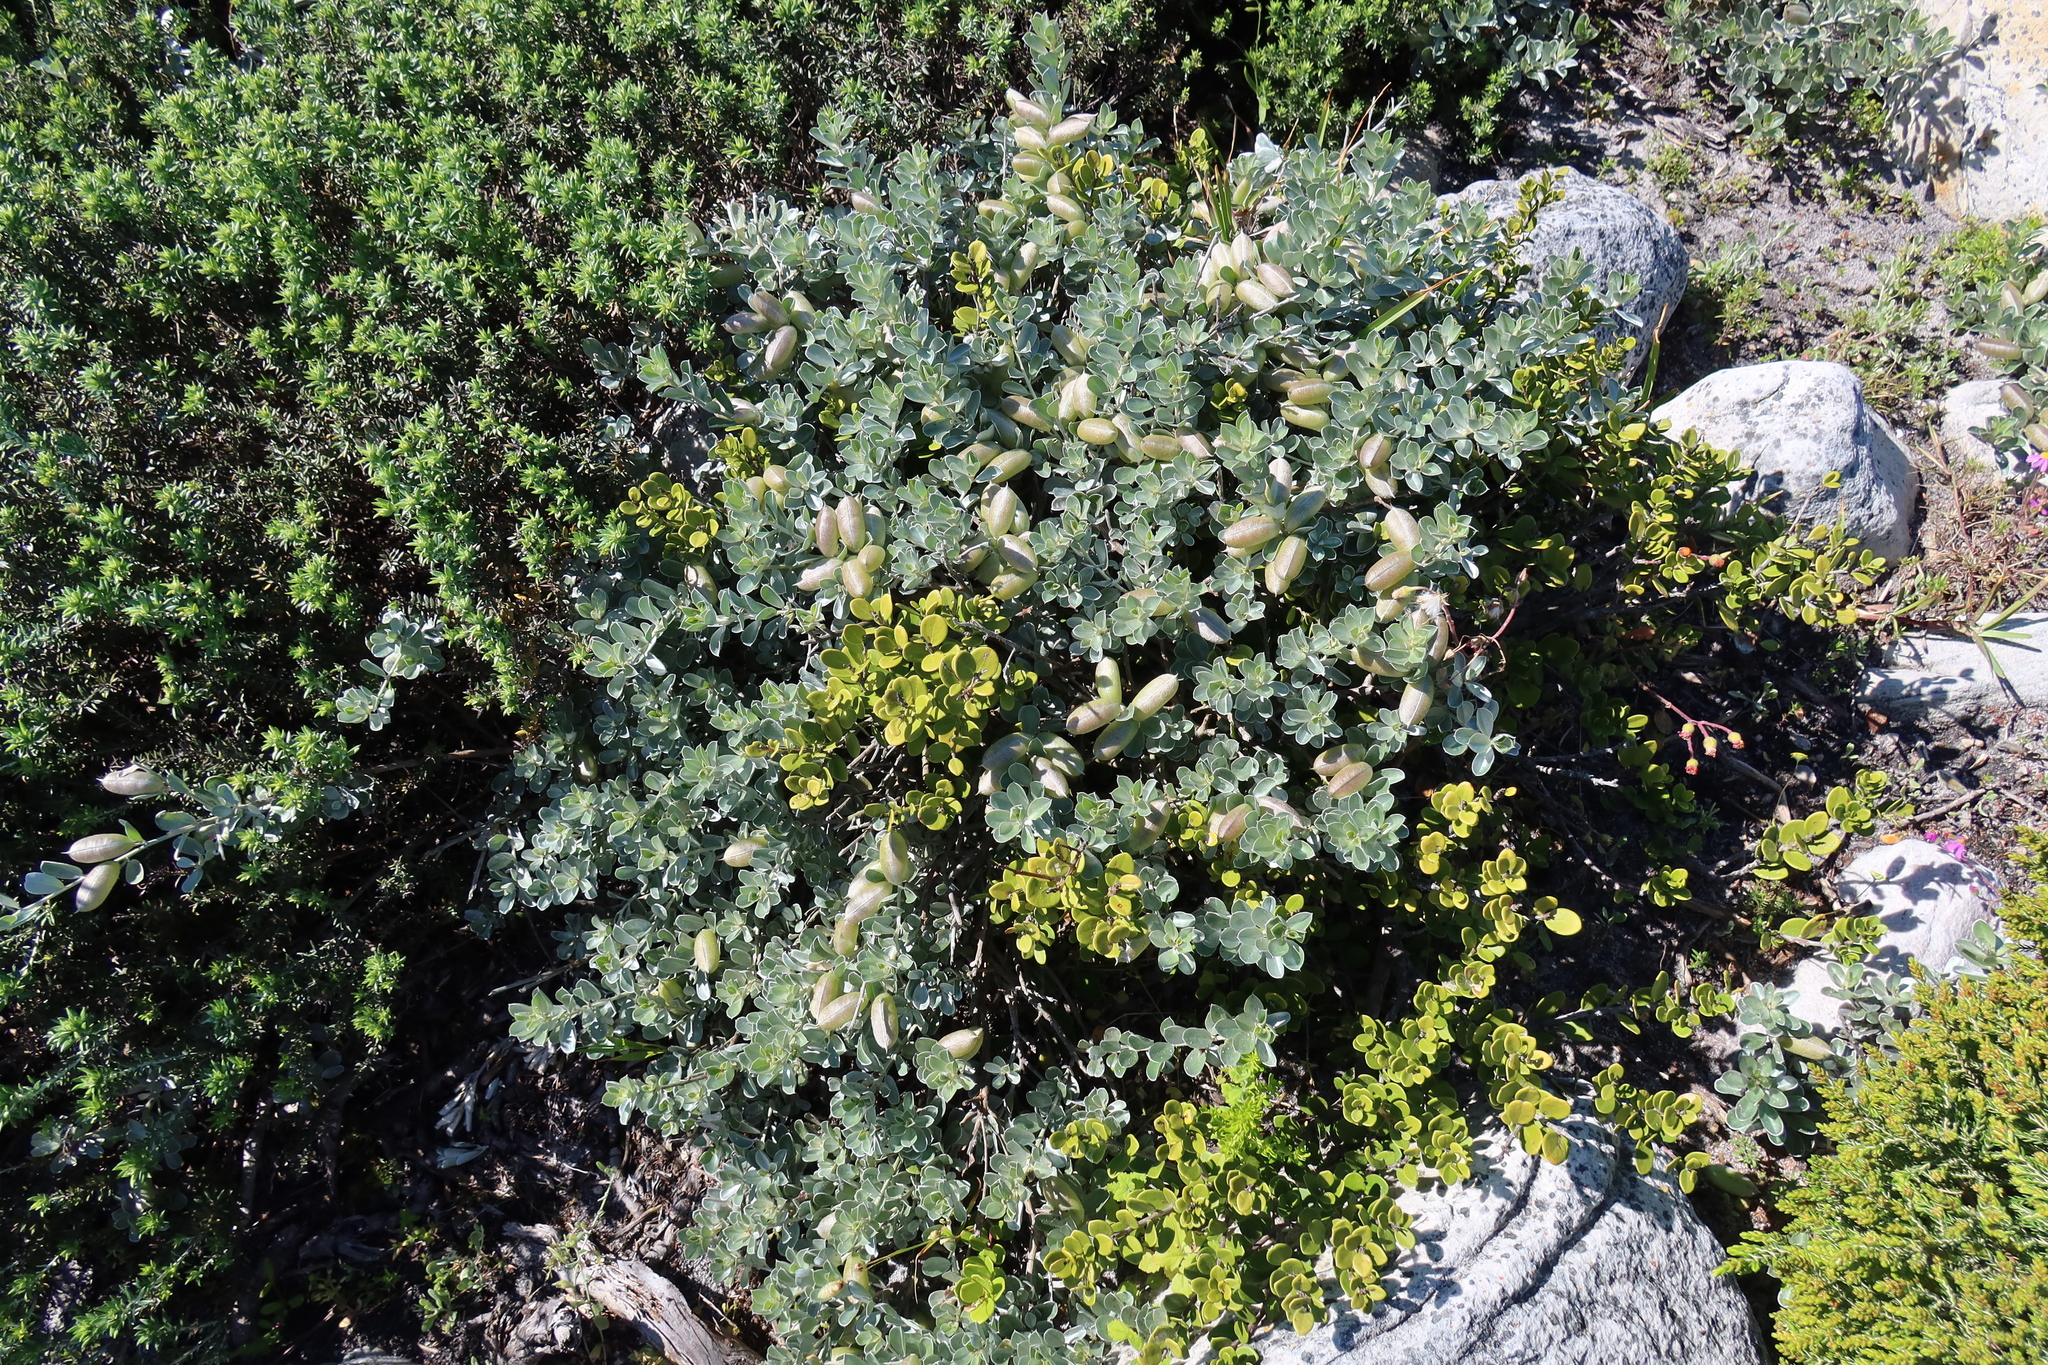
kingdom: Plantae
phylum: Tracheophyta
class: Magnoliopsida
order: Fabales
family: Fabaceae
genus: Podalyria
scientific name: Podalyria sericea
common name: Silver podalyria
